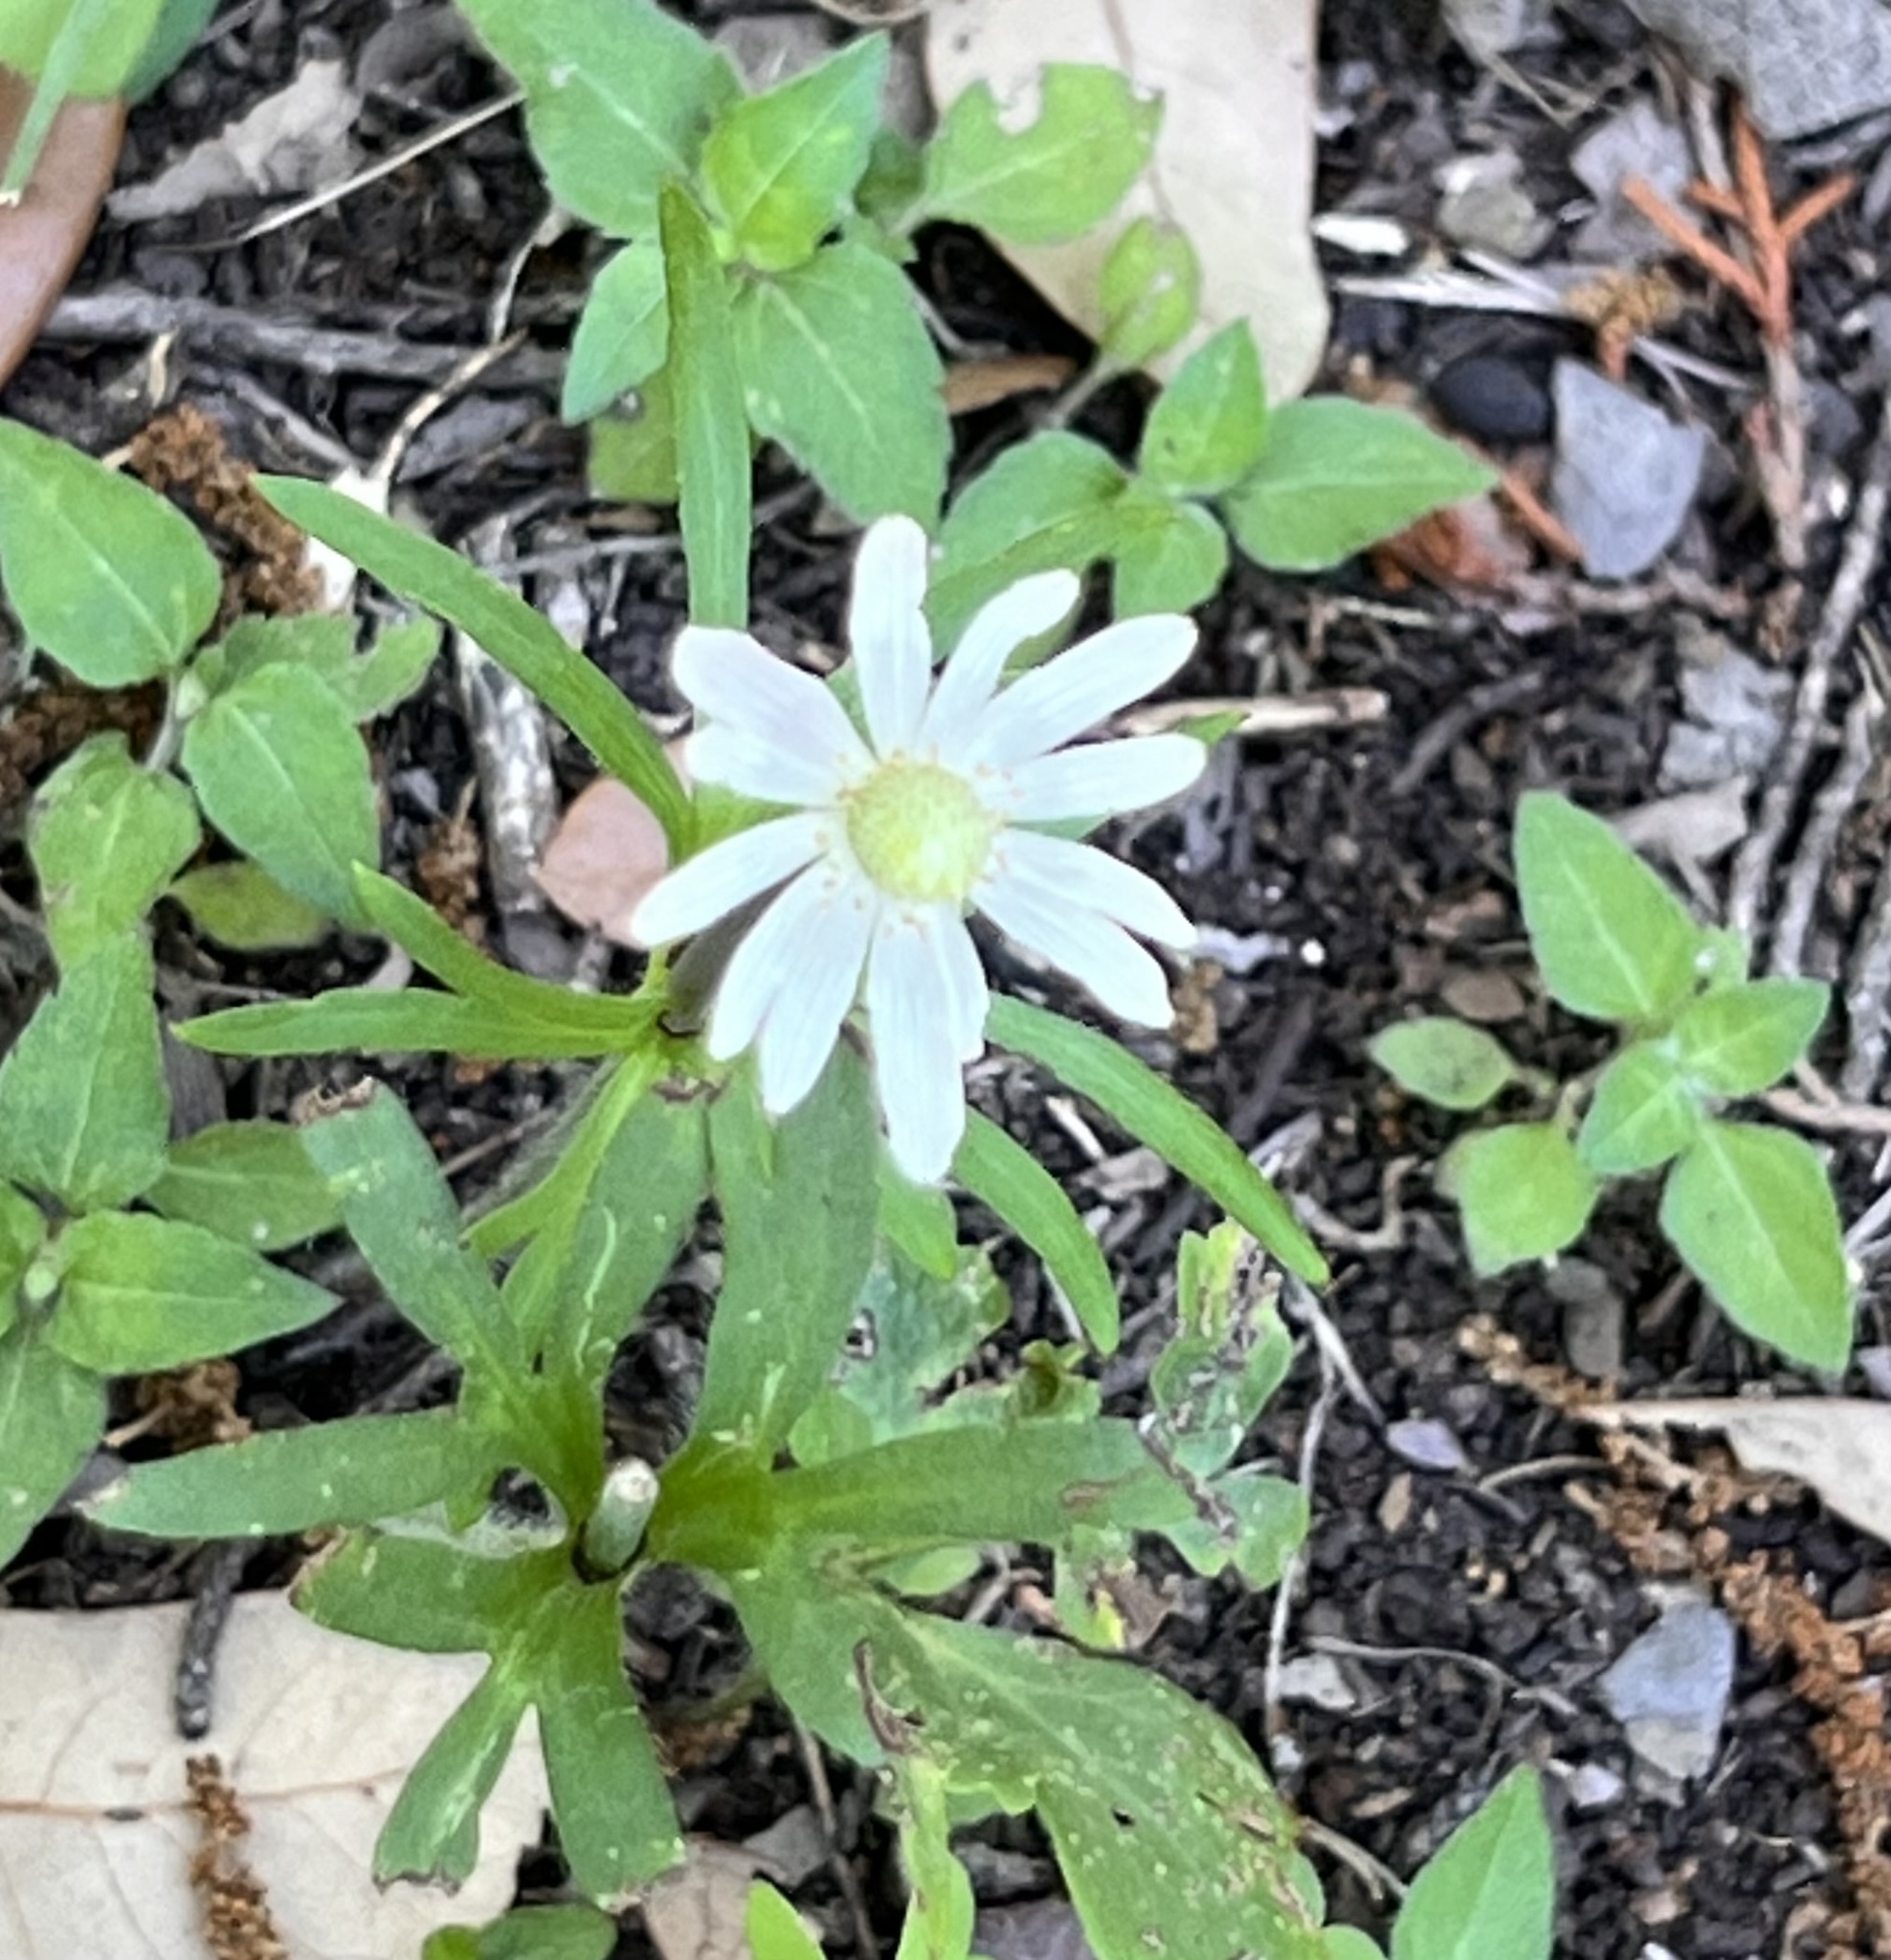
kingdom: Plantae
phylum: Tracheophyta
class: Magnoliopsida
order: Ranunculales
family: Ranunculaceae
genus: Anemone
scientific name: Anemone berlandieri
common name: Ten-petal anemone
